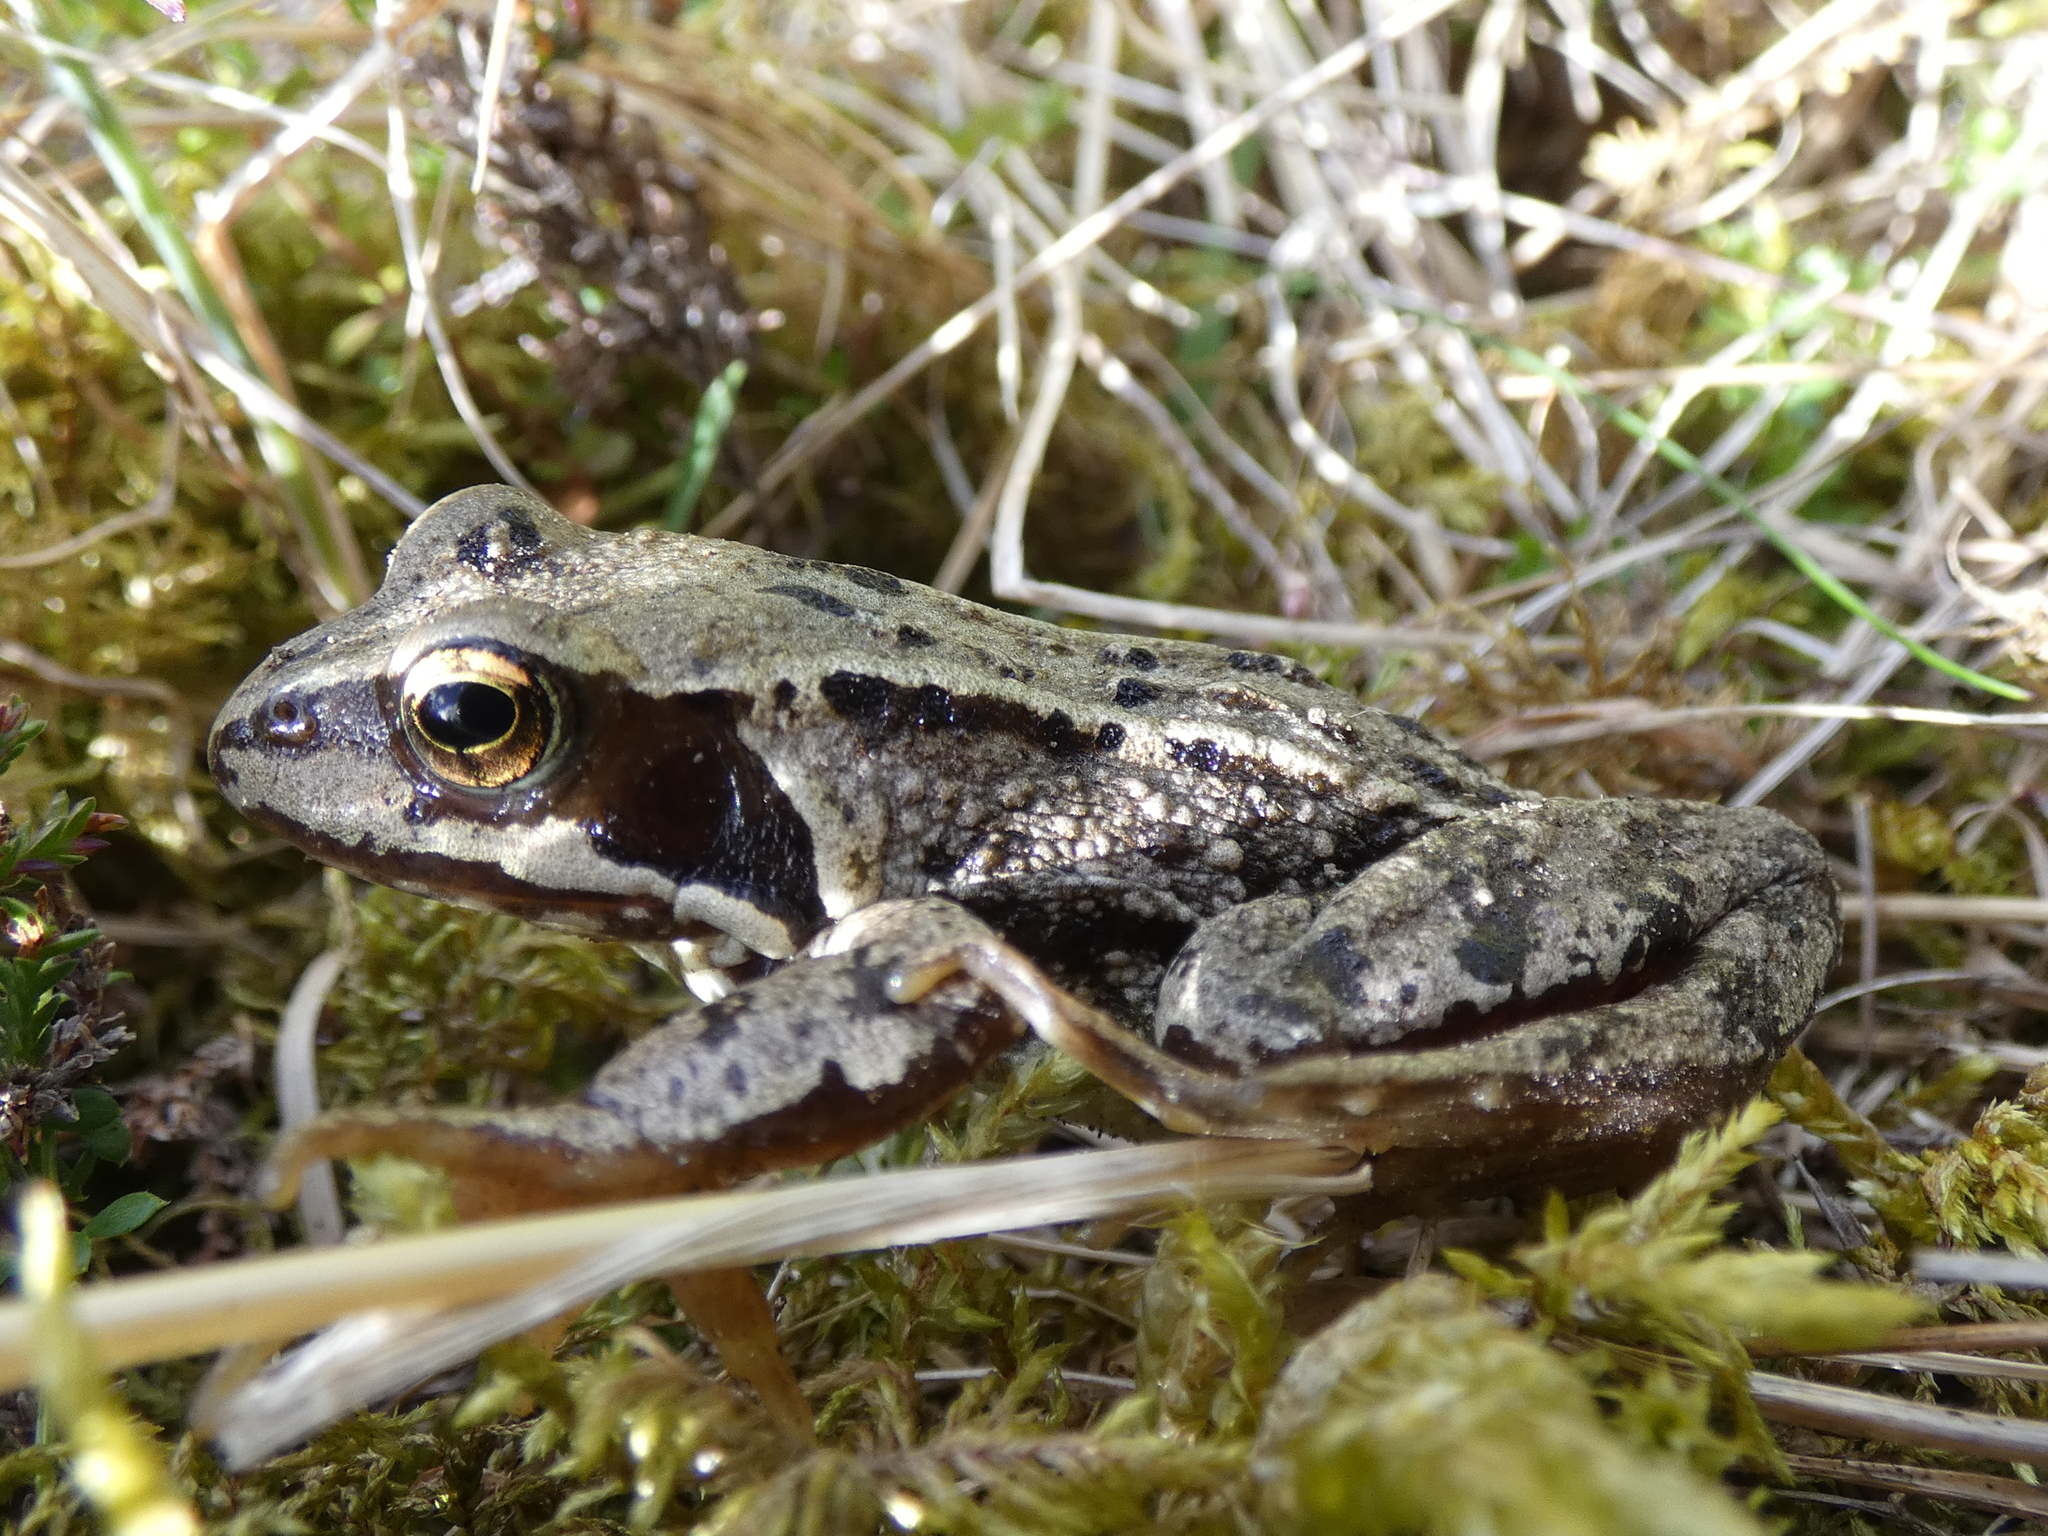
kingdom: Animalia
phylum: Chordata
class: Amphibia
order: Anura
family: Ranidae
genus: Rana
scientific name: Rana temporaria
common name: Common frog
